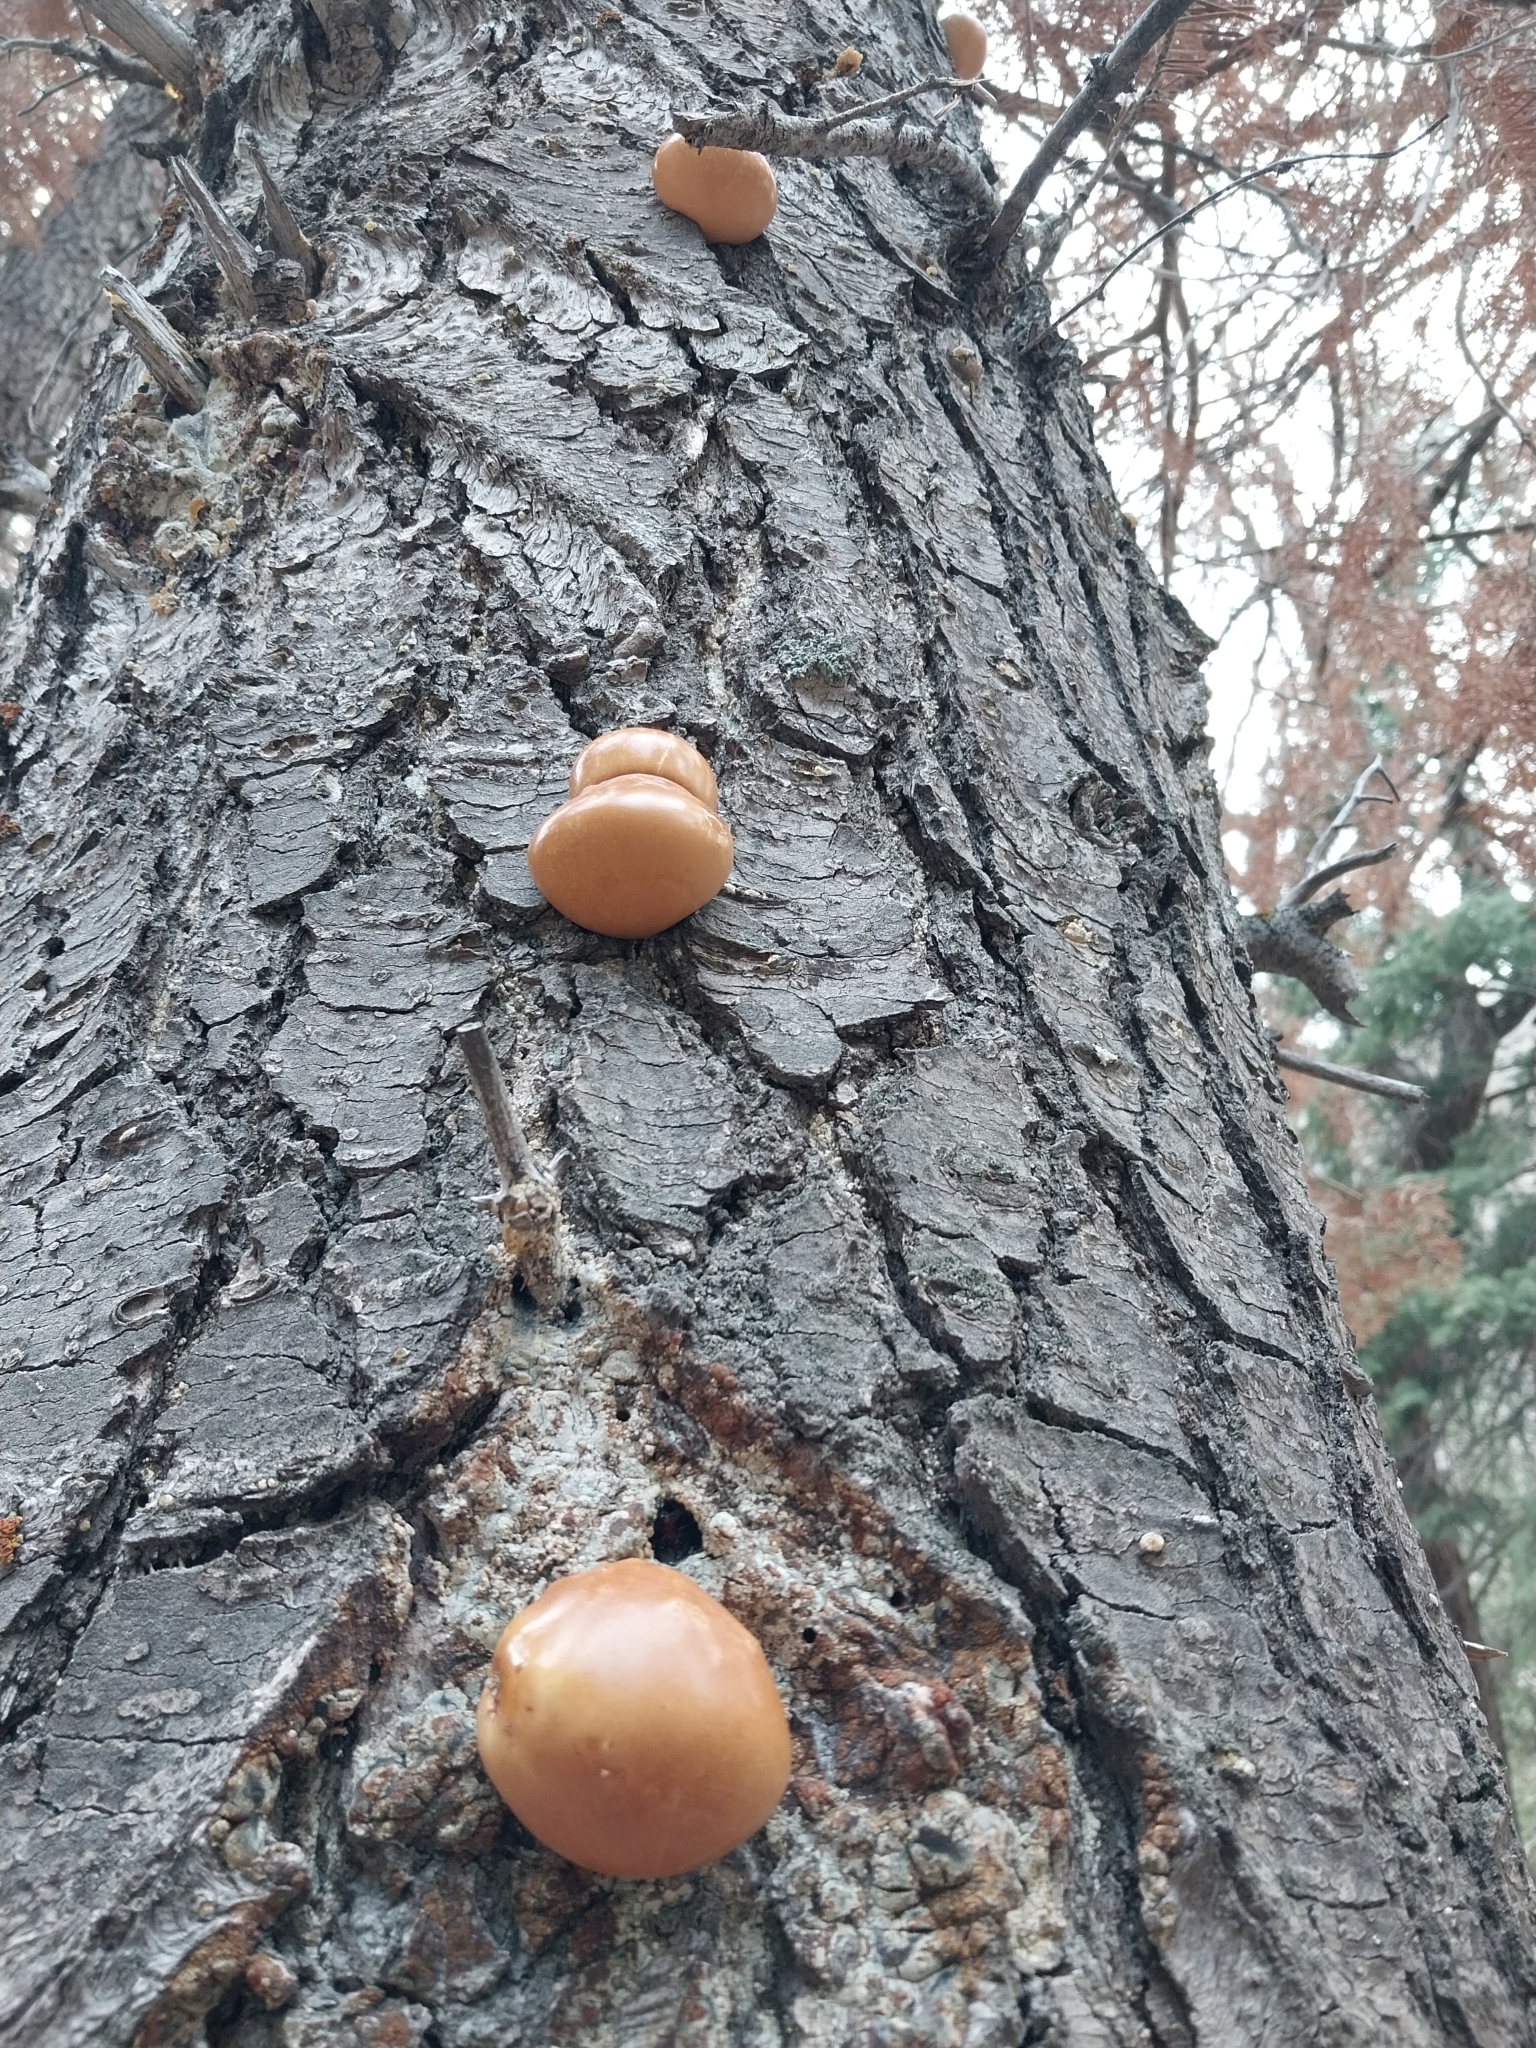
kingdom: Fungi
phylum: Basidiomycota
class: Agaricomycetes
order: Polyporales
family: Polyporaceae
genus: Cryptoporus
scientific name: Cryptoporus volvatus
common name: Veiled polypore
